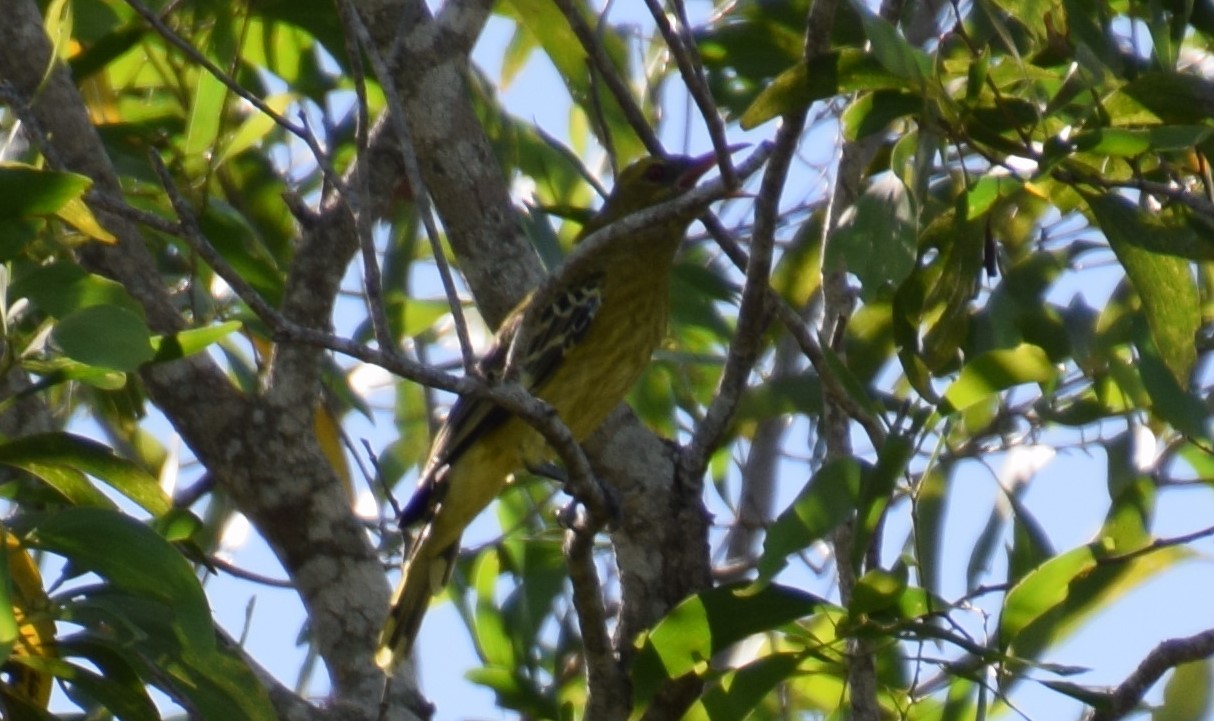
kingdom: Animalia
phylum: Chordata
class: Aves
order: Passeriformes
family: Oriolidae
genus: Oriolus
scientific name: Oriolus flavocinctus
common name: Green oriole
